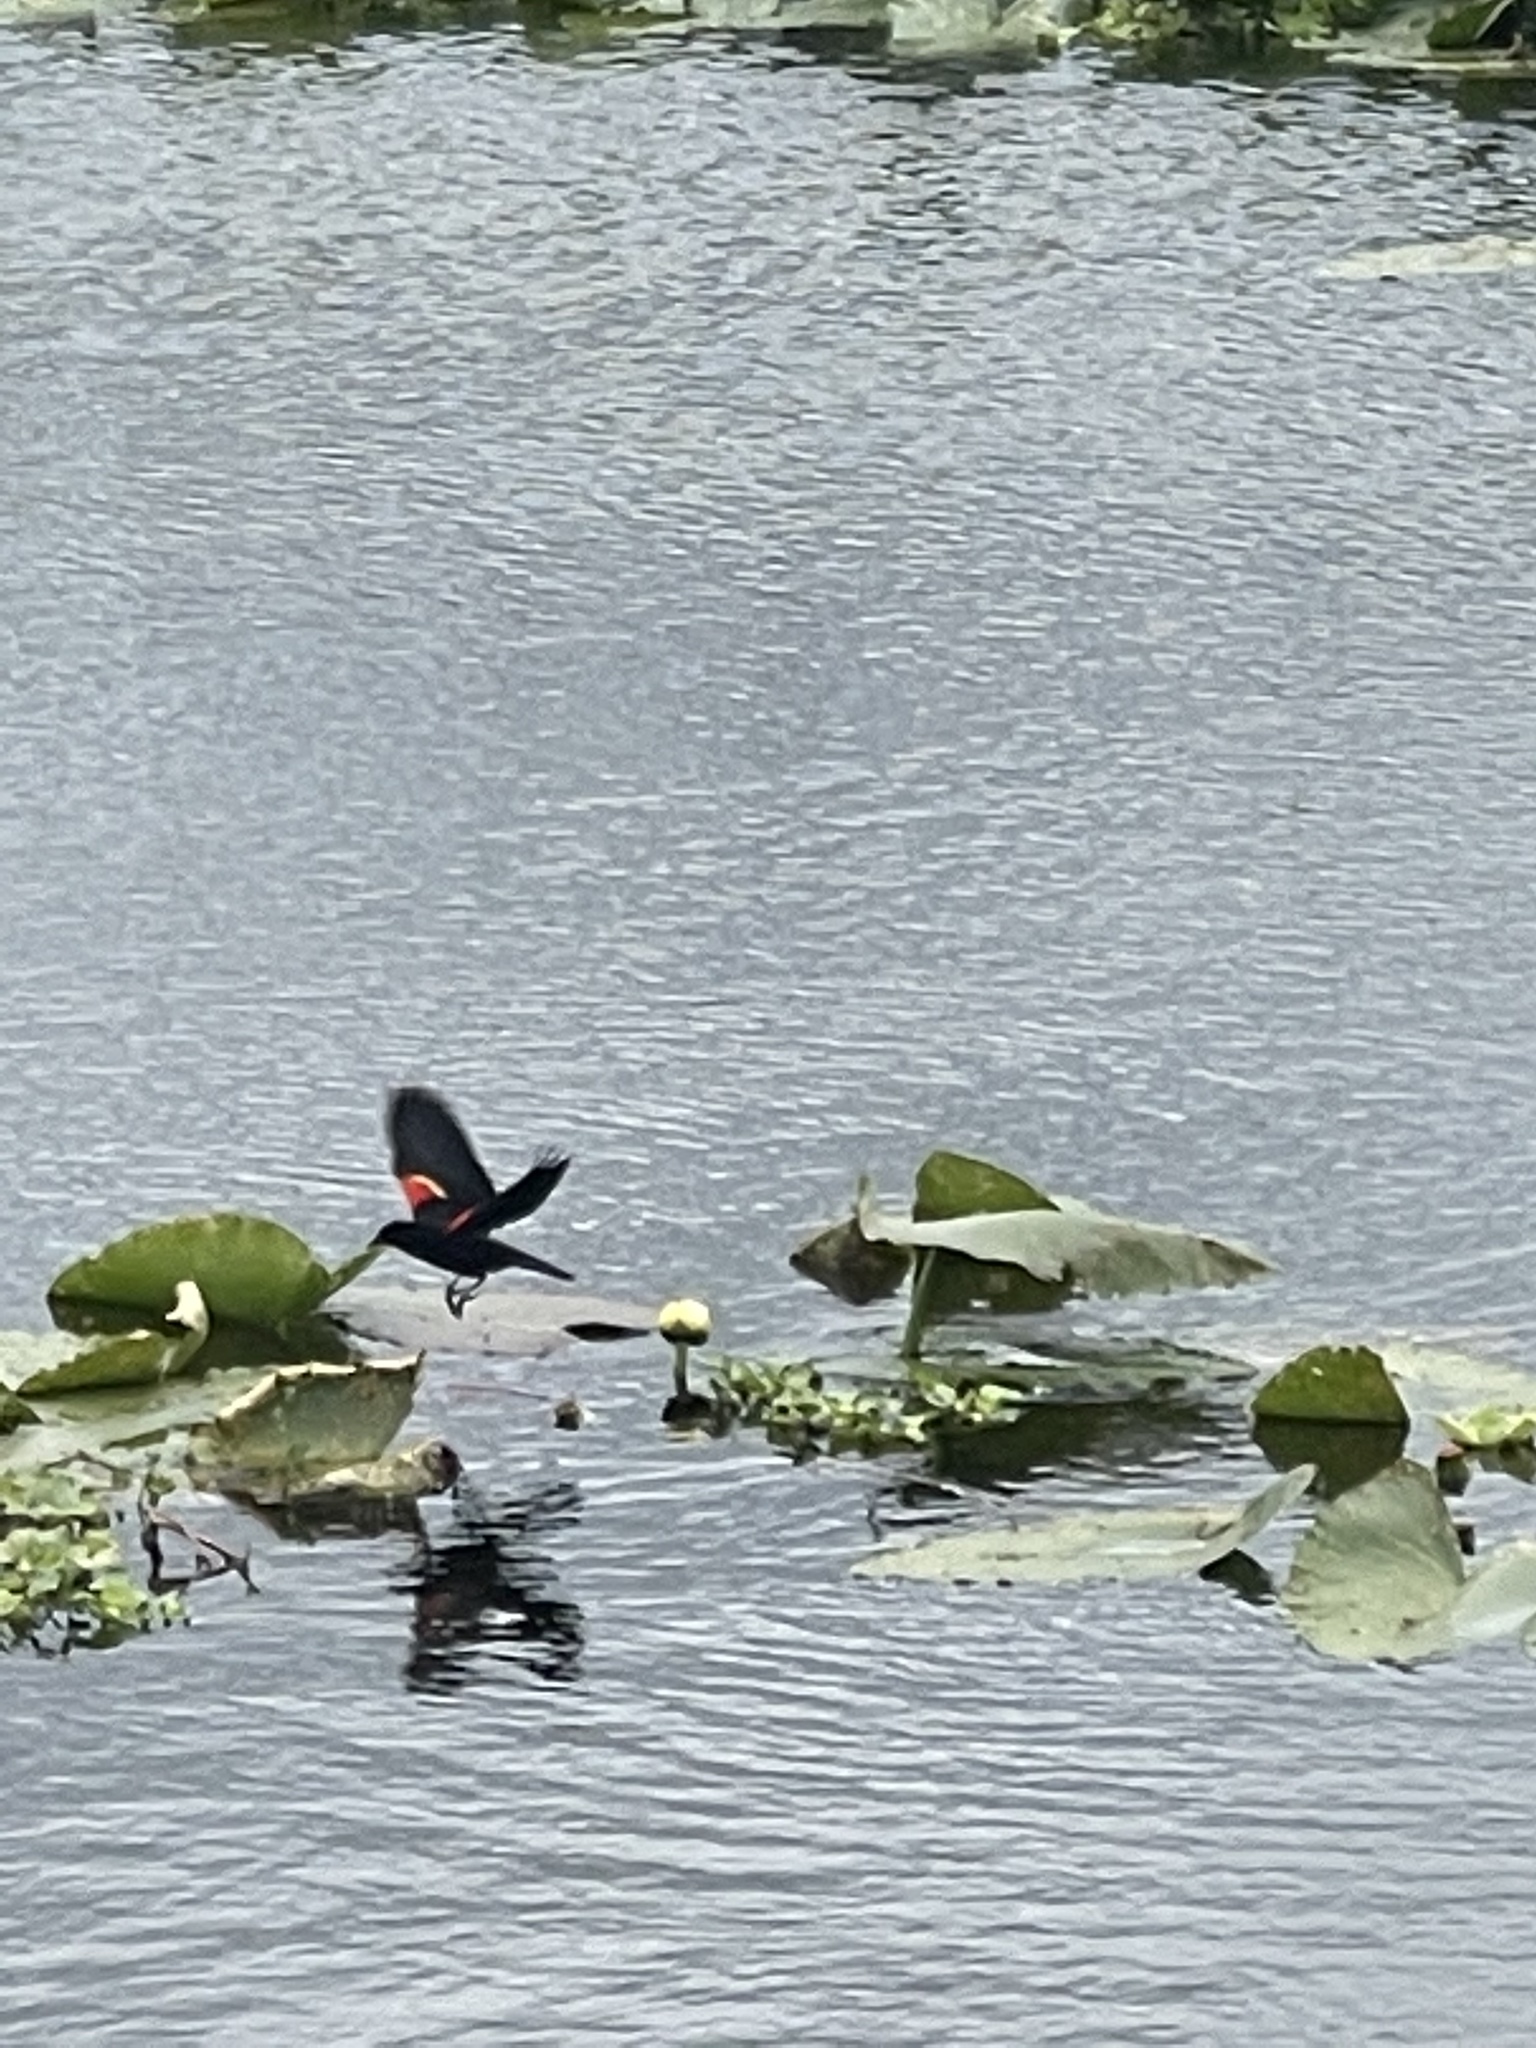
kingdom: Animalia
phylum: Chordata
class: Aves
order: Passeriformes
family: Icteridae
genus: Agelaius
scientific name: Agelaius phoeniceus
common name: Red-winged blackbird
